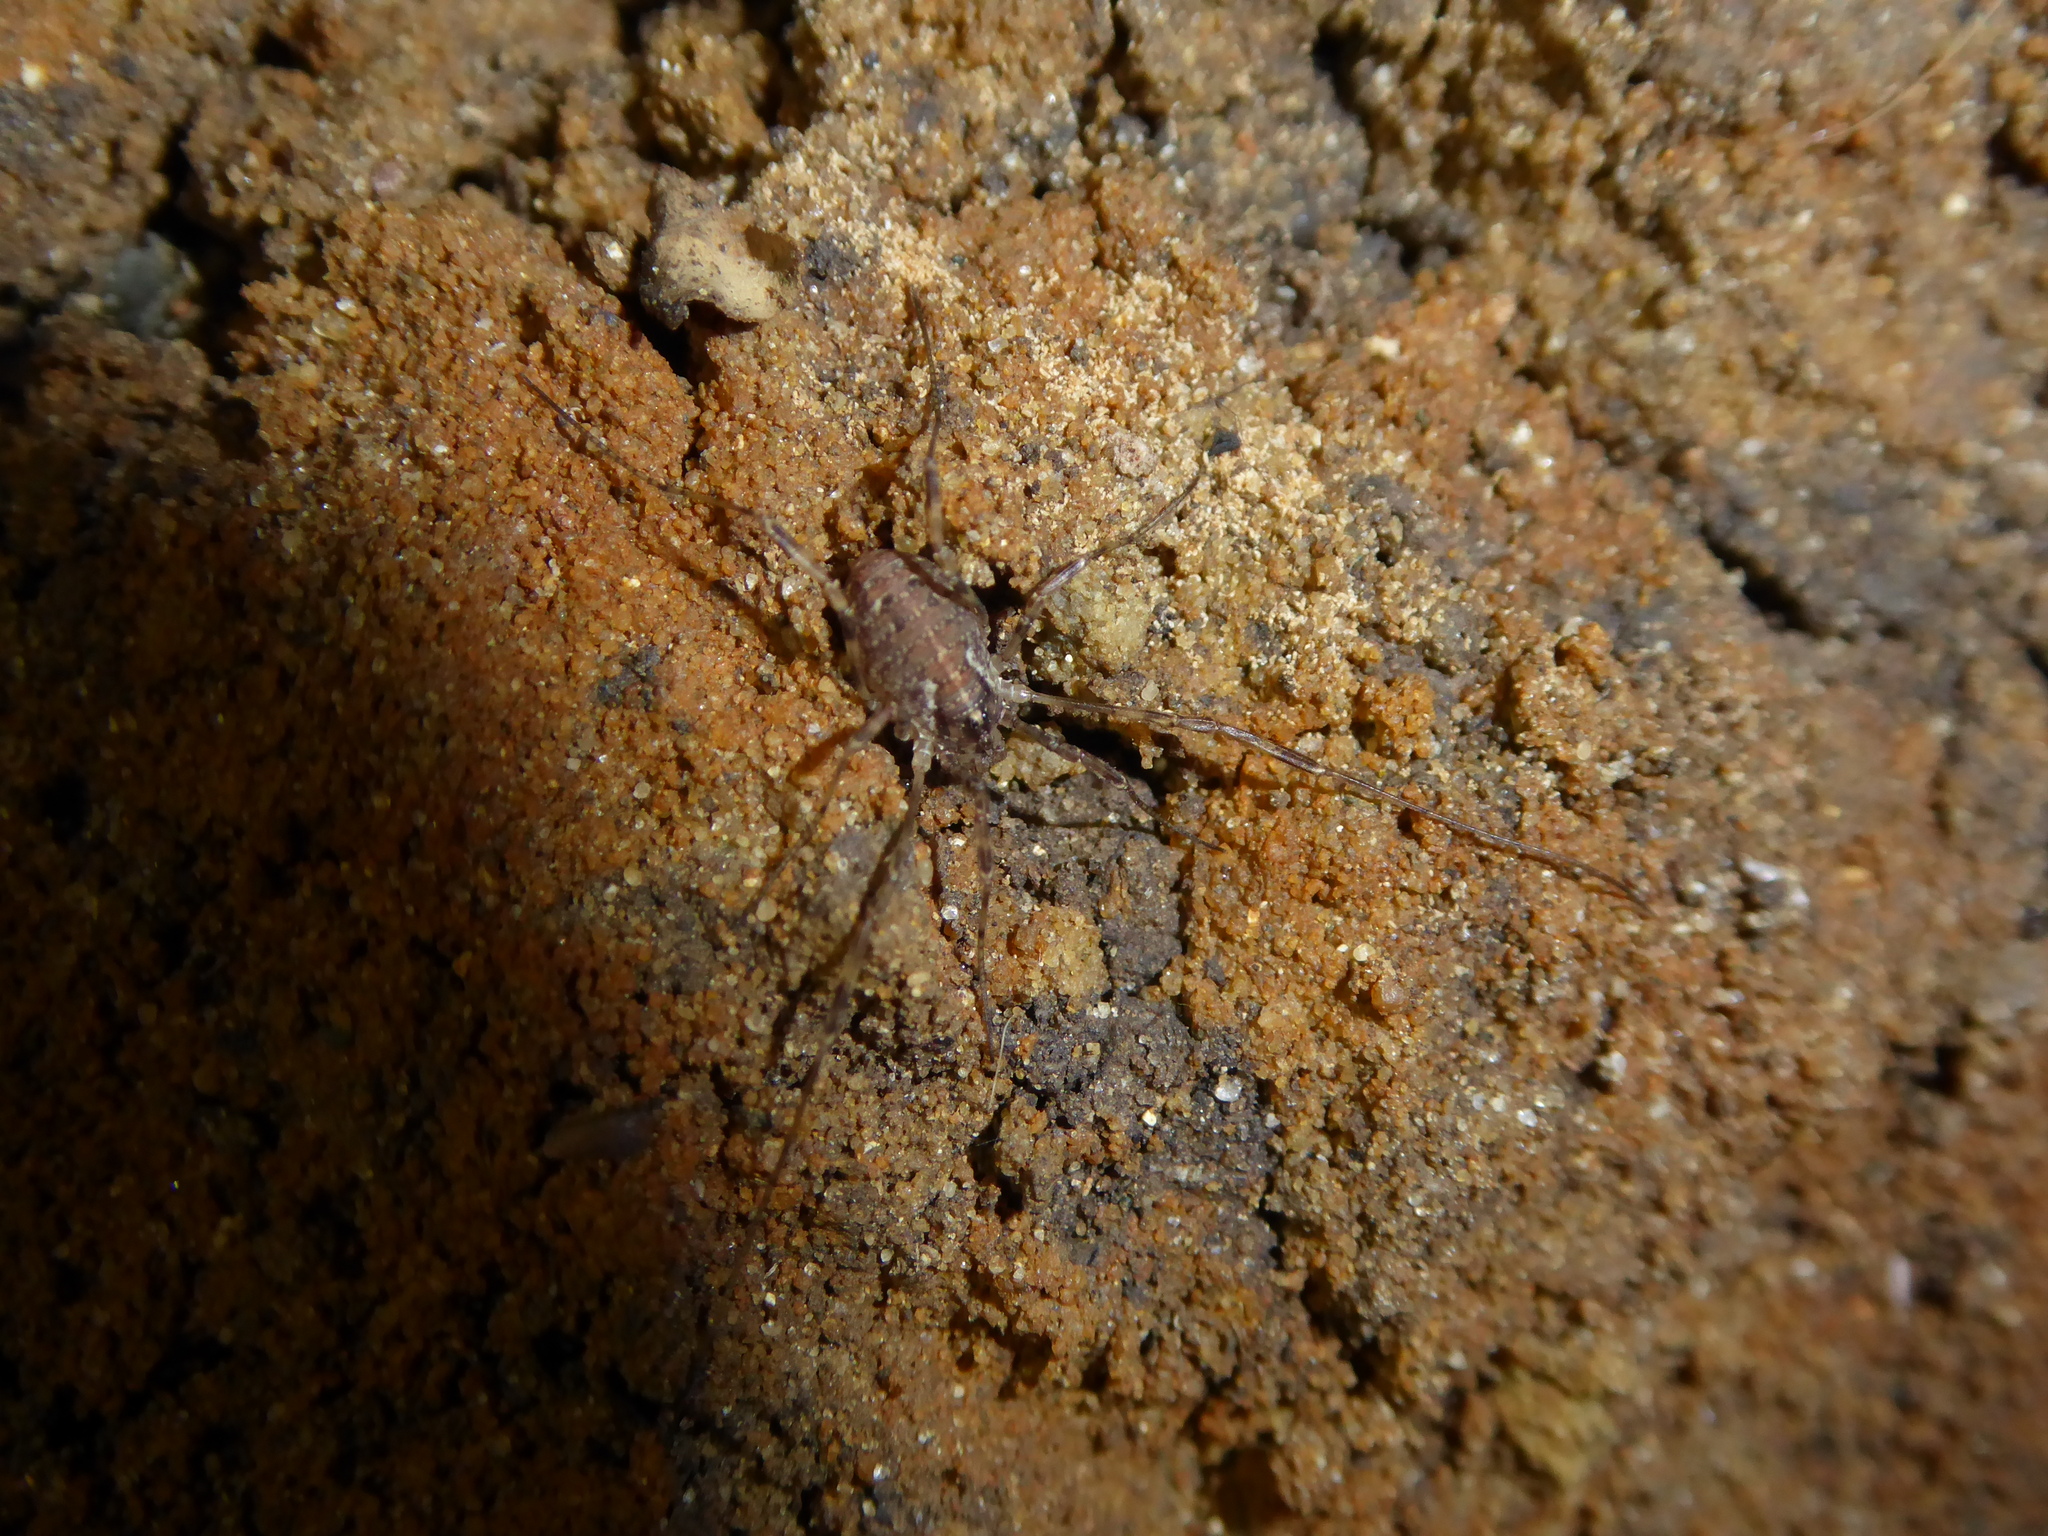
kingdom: Animalia
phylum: Arthropoda
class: Arachnida
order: Opiliones
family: Phalangiidae
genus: Paroligolophus
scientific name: Paroligolophus agrestis
